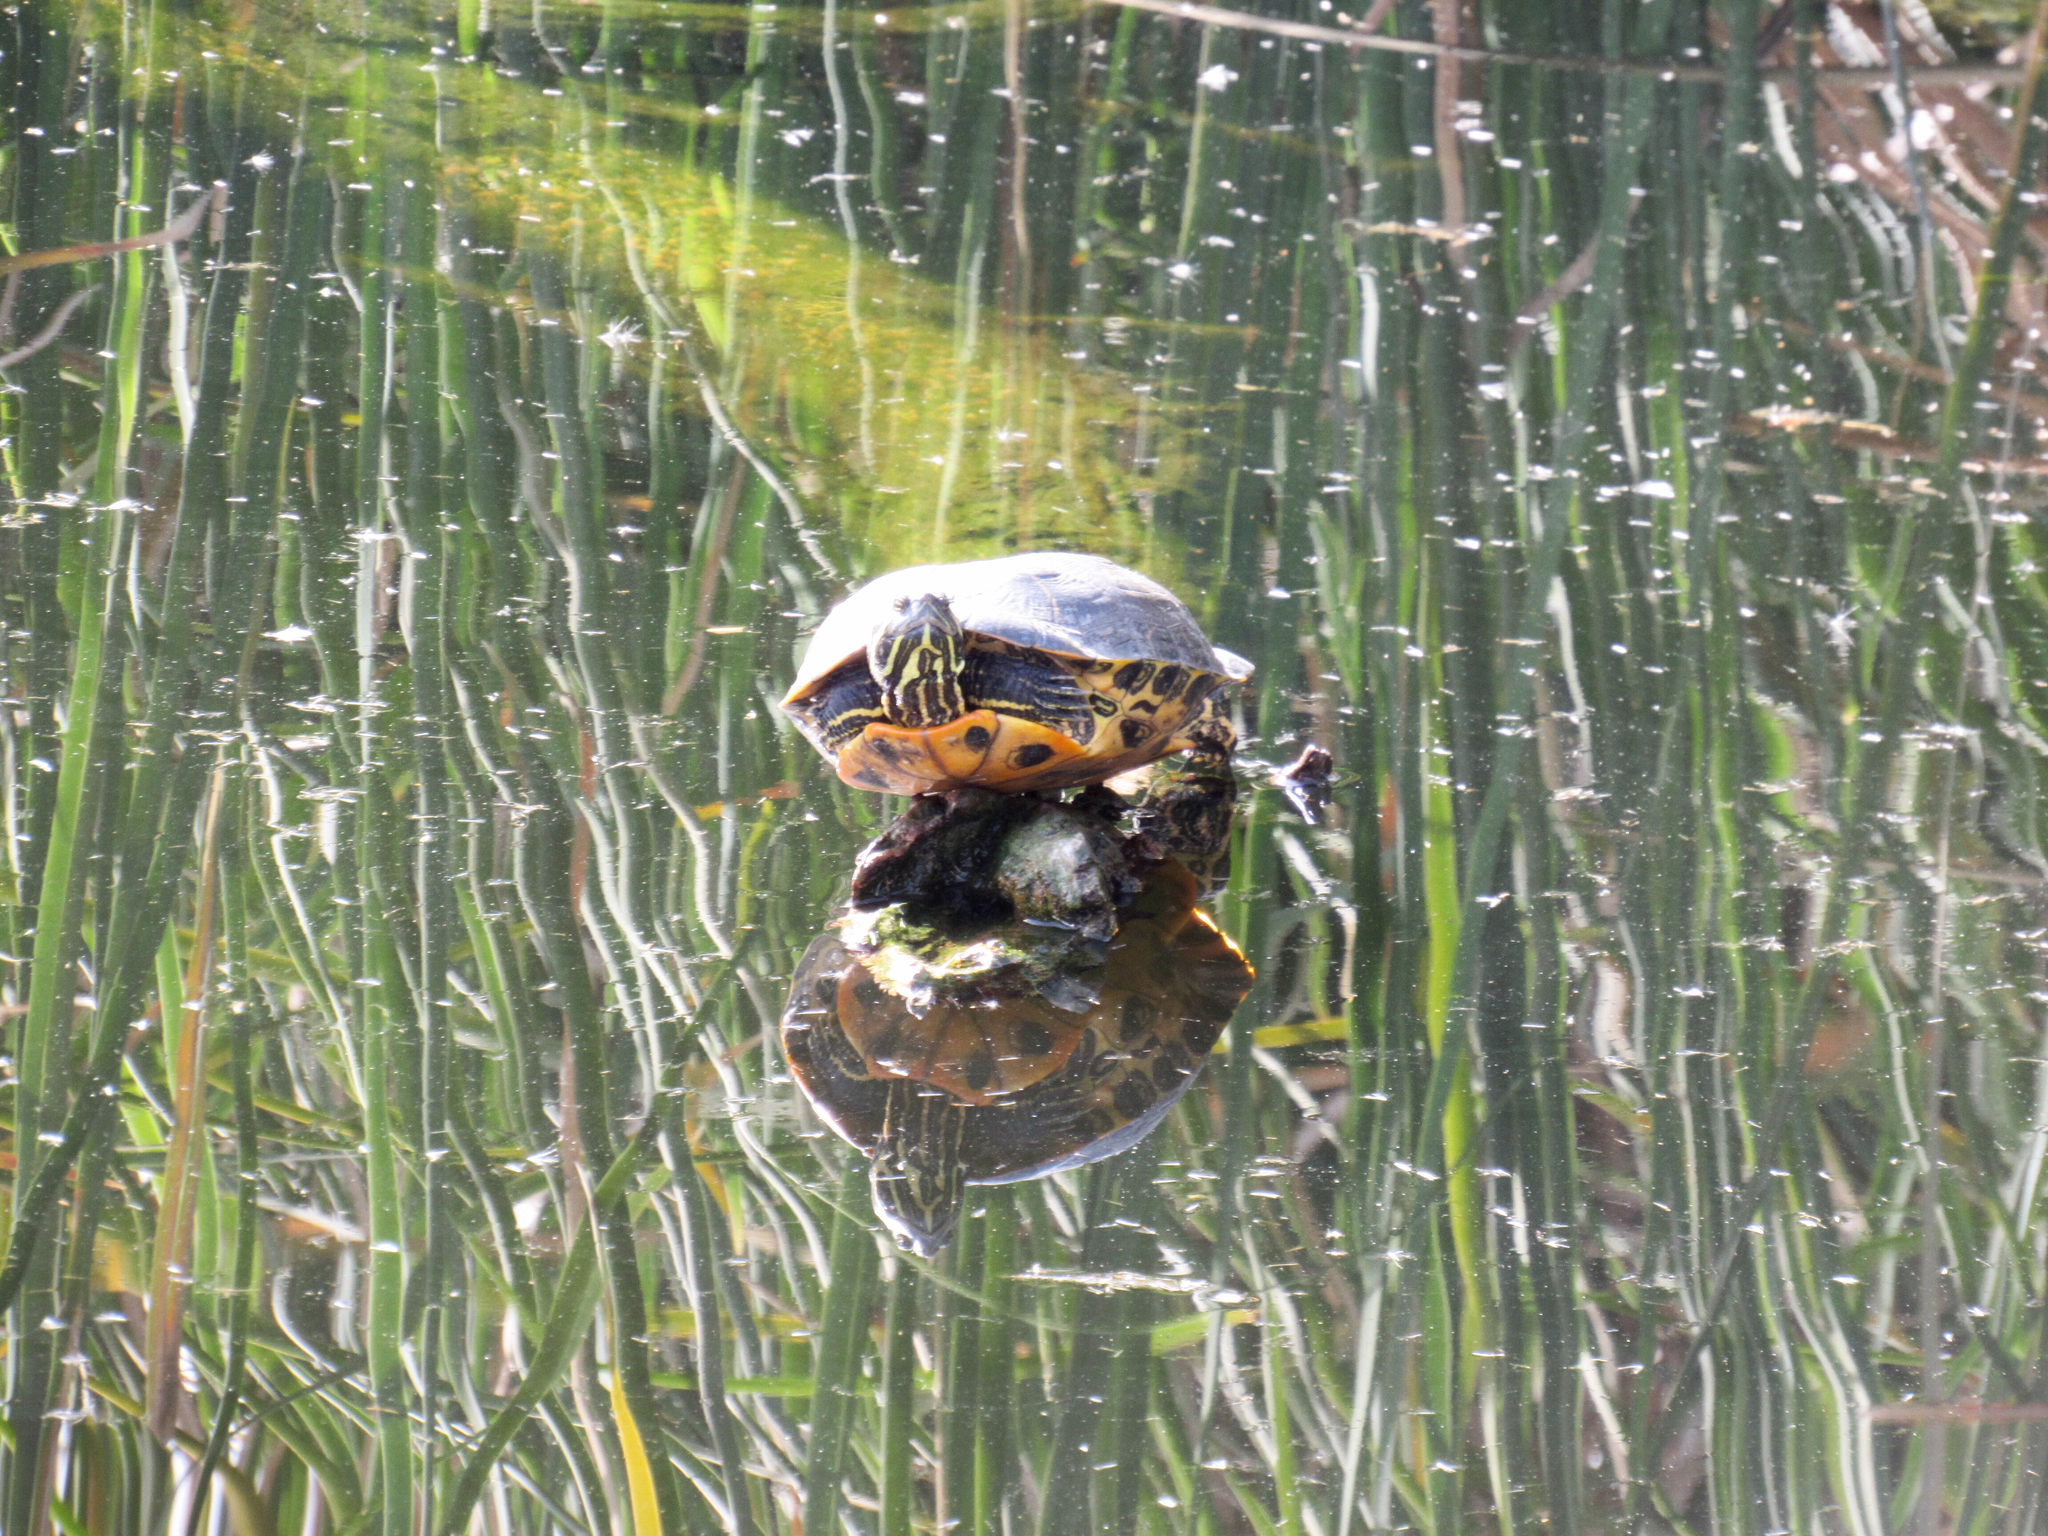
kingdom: Animalia
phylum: Chordata
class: Testudines
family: Emydidae
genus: Trachemys
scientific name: Trachemys scripta
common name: Slider
